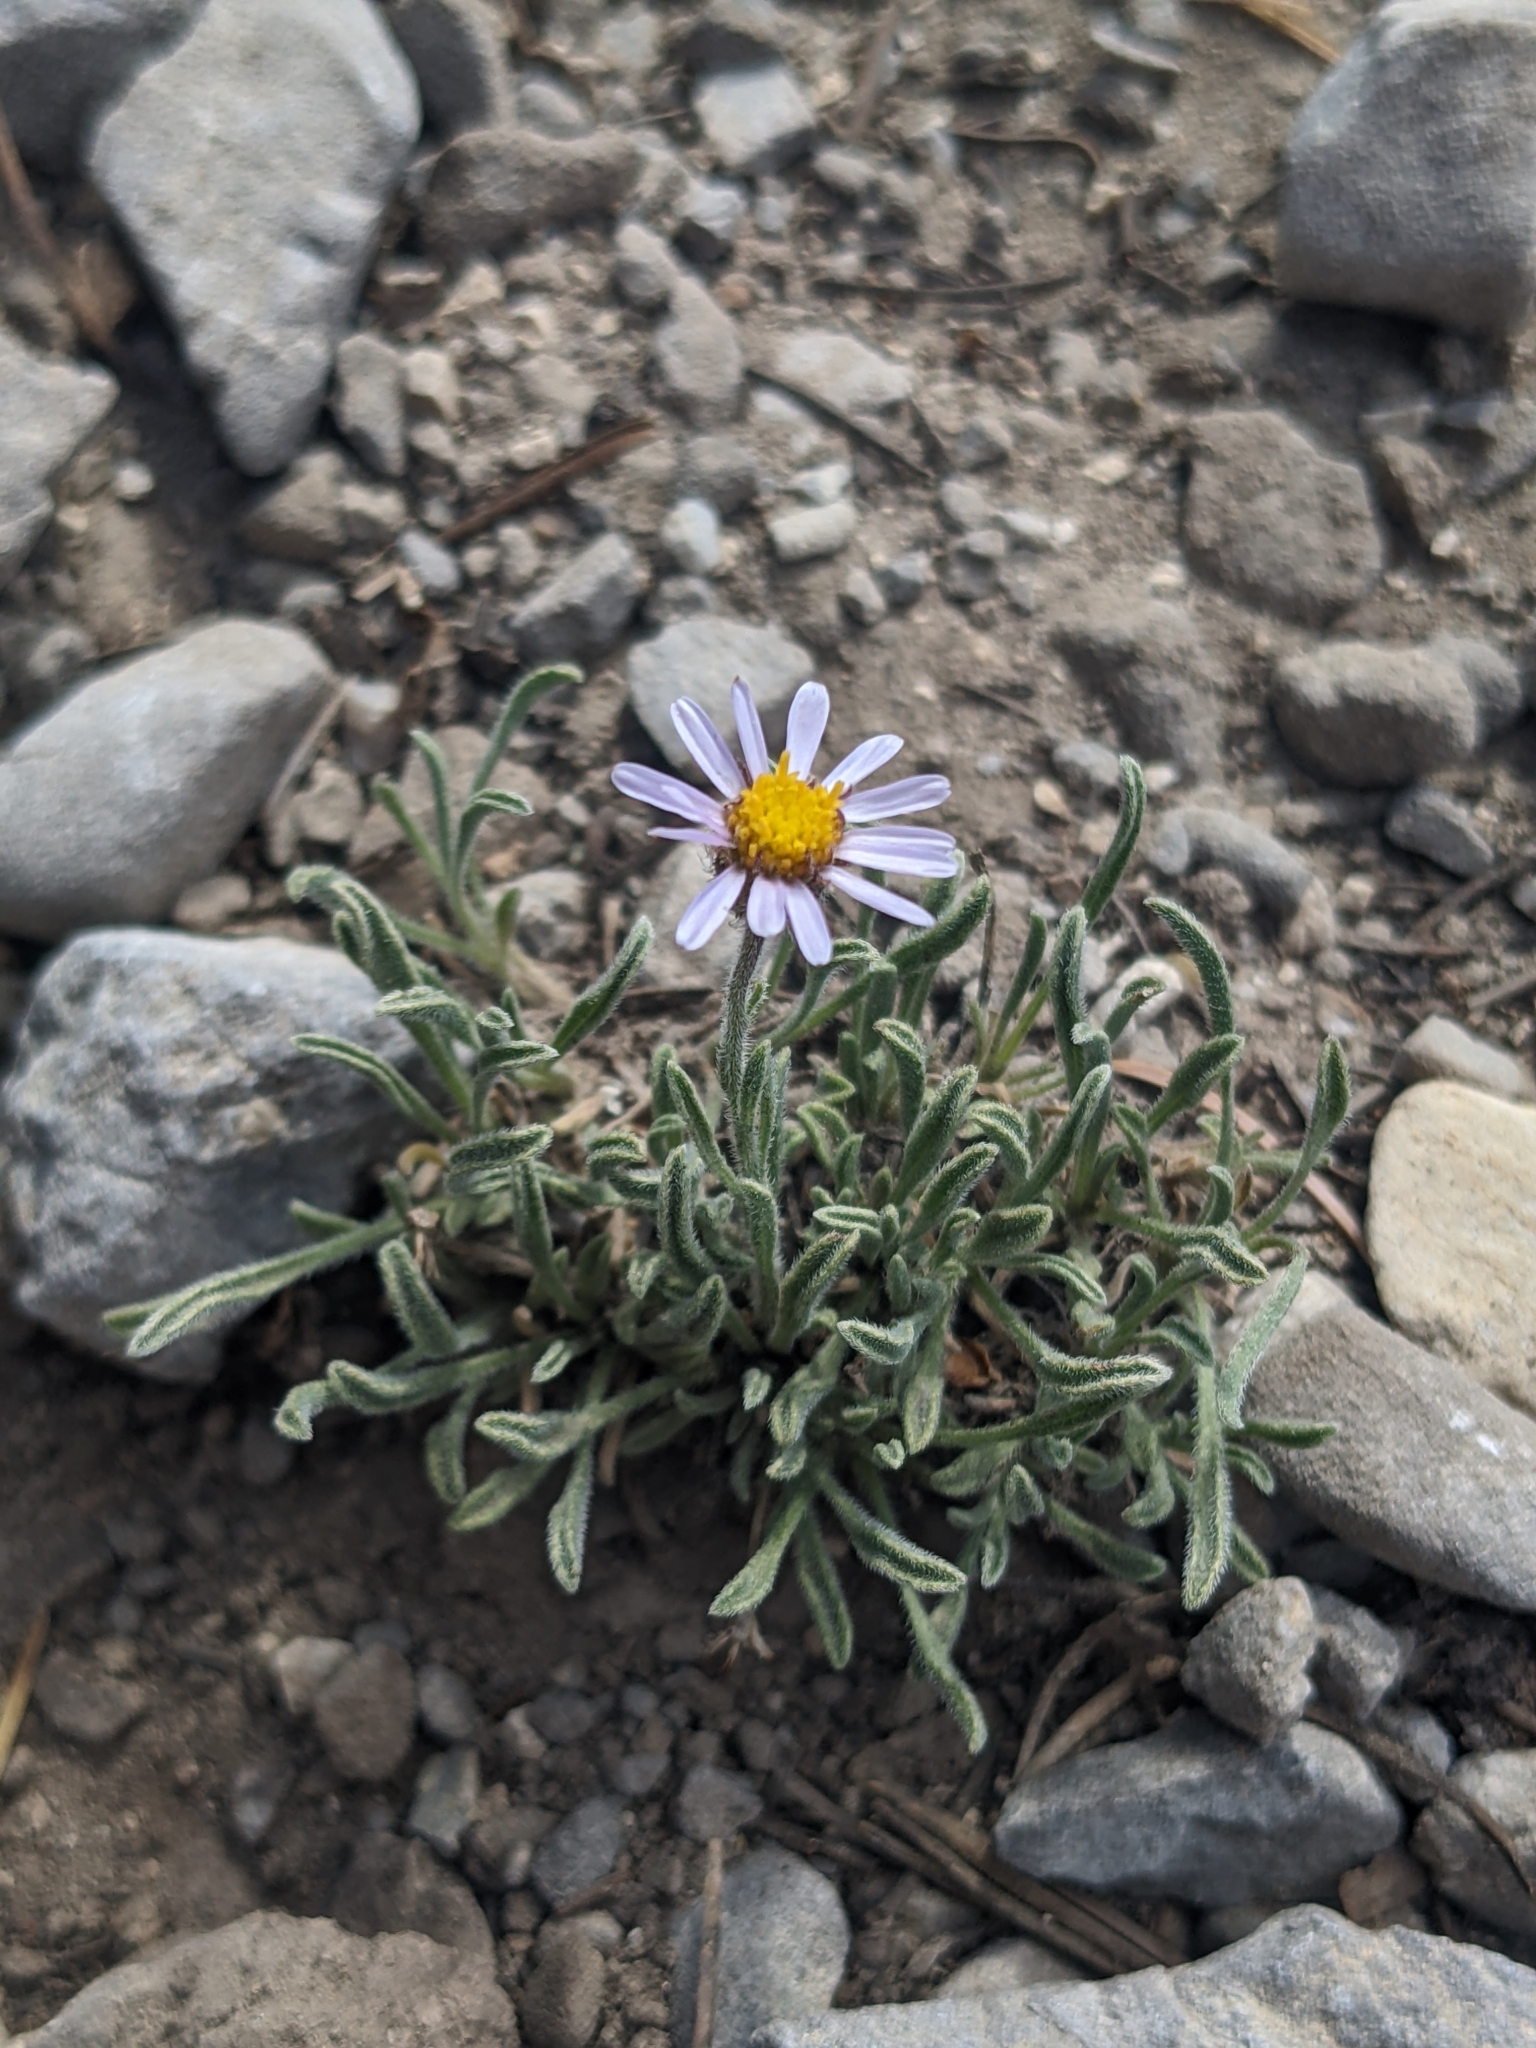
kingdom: Plantae
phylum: Tracheophyta
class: Magnoliopsida
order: Asterales
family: Asteraceae
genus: Erigeron
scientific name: Erigeron clokeyi
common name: Clokey's fleabane
